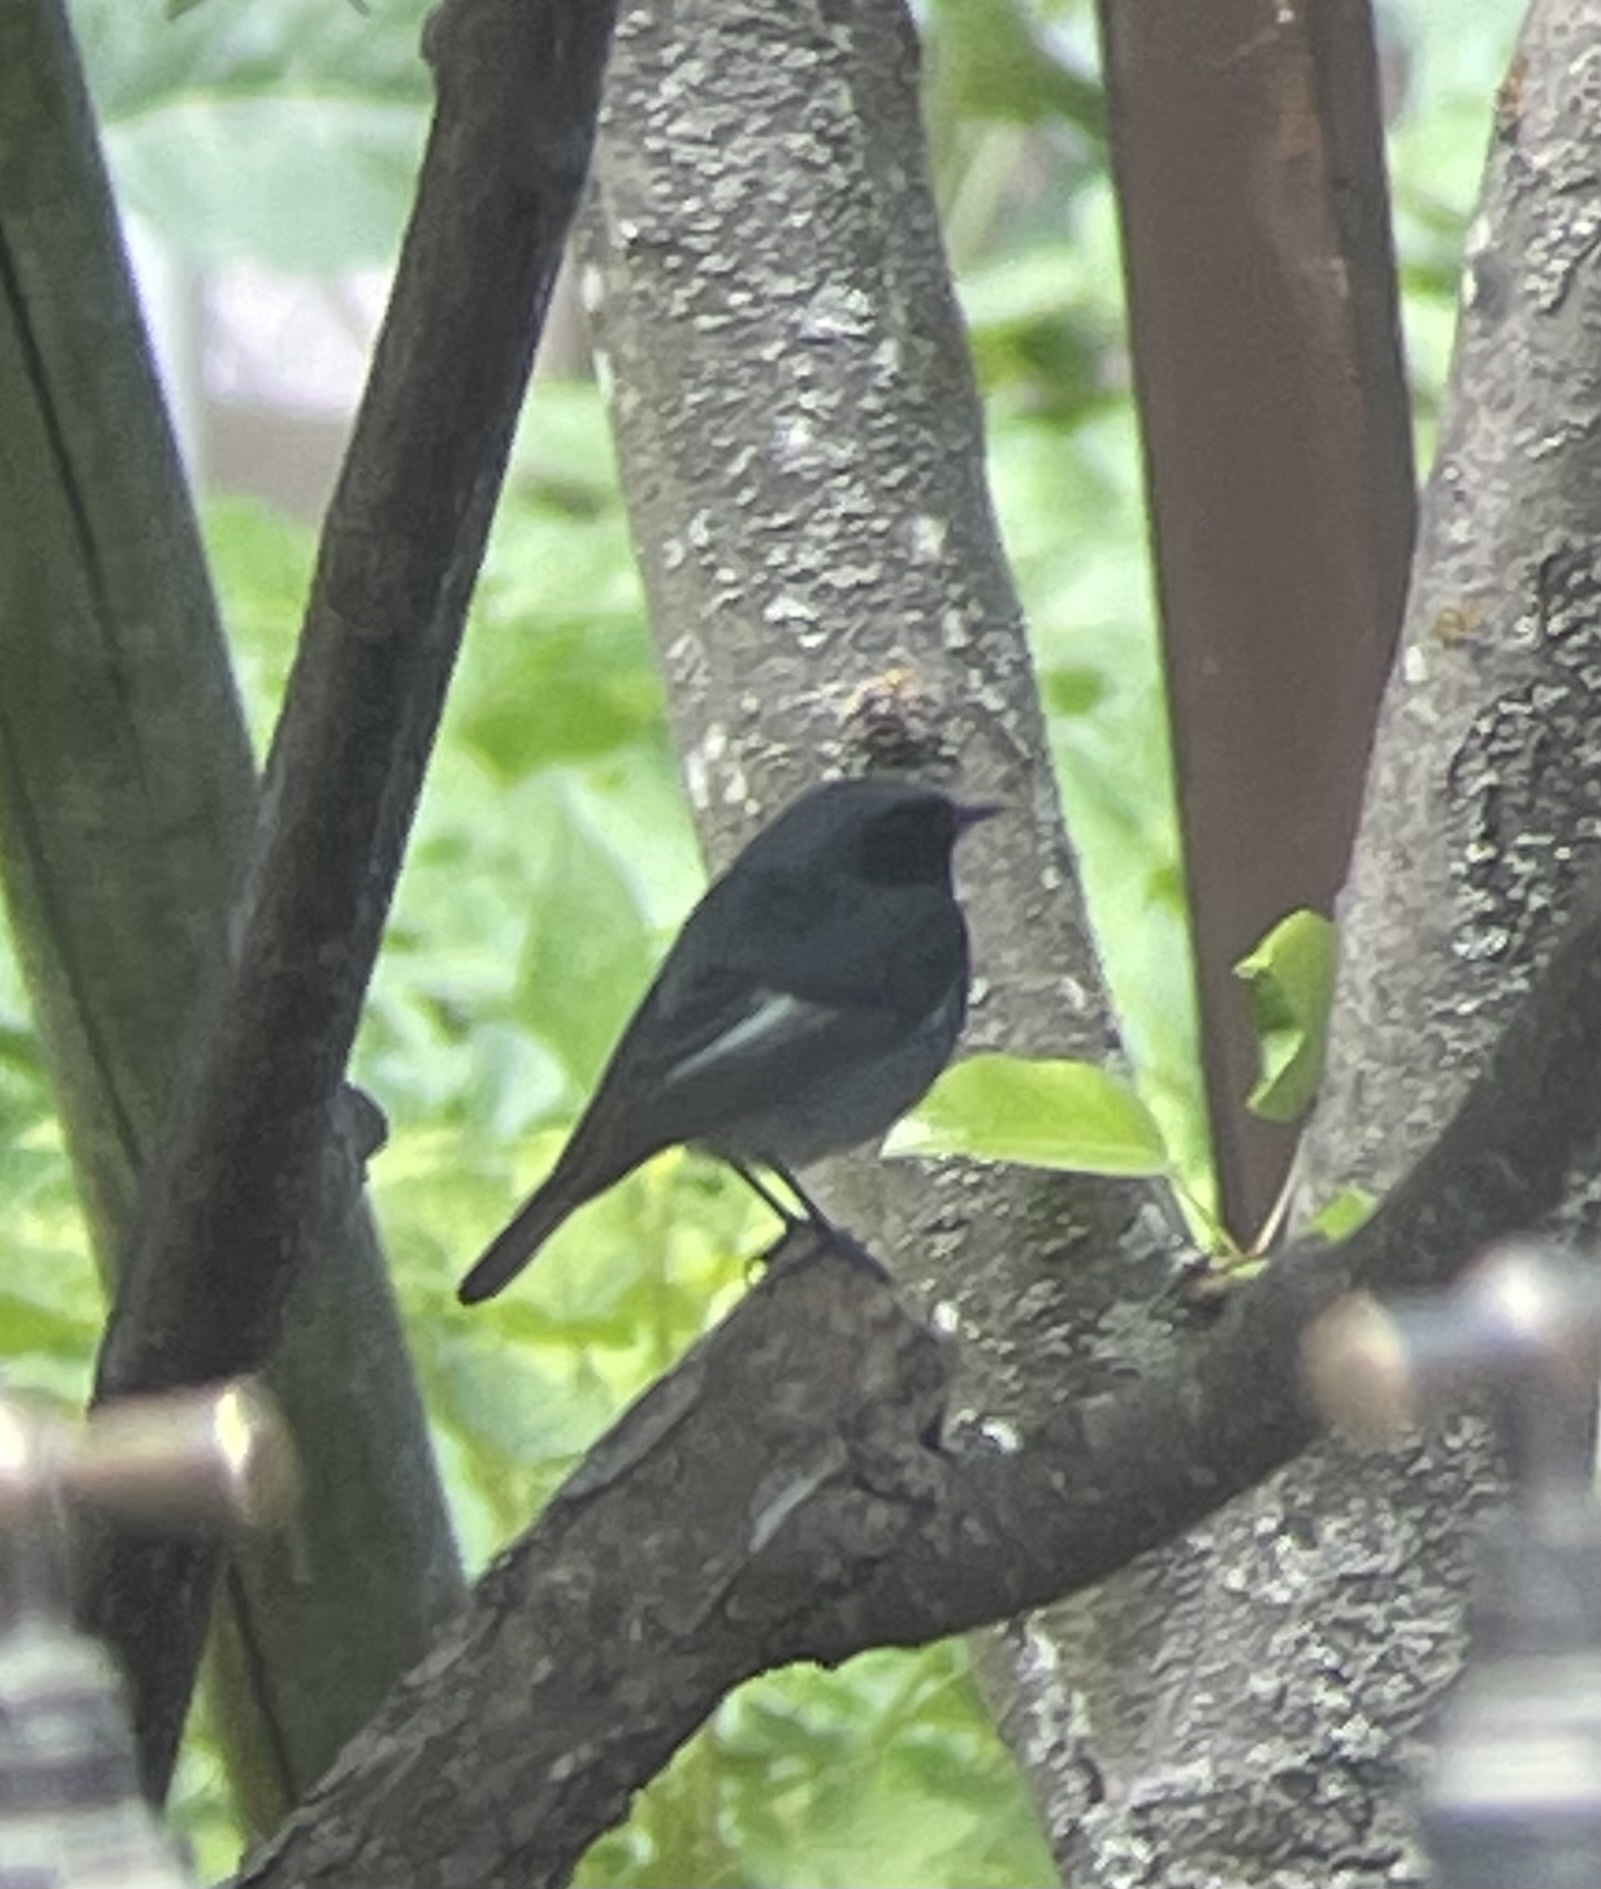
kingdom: Animalia
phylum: Chordata
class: Aves
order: Passeriformes
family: Muscicapidae
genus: Phoenicurus
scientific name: Phoenicurus ochruros
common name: Black redstart
